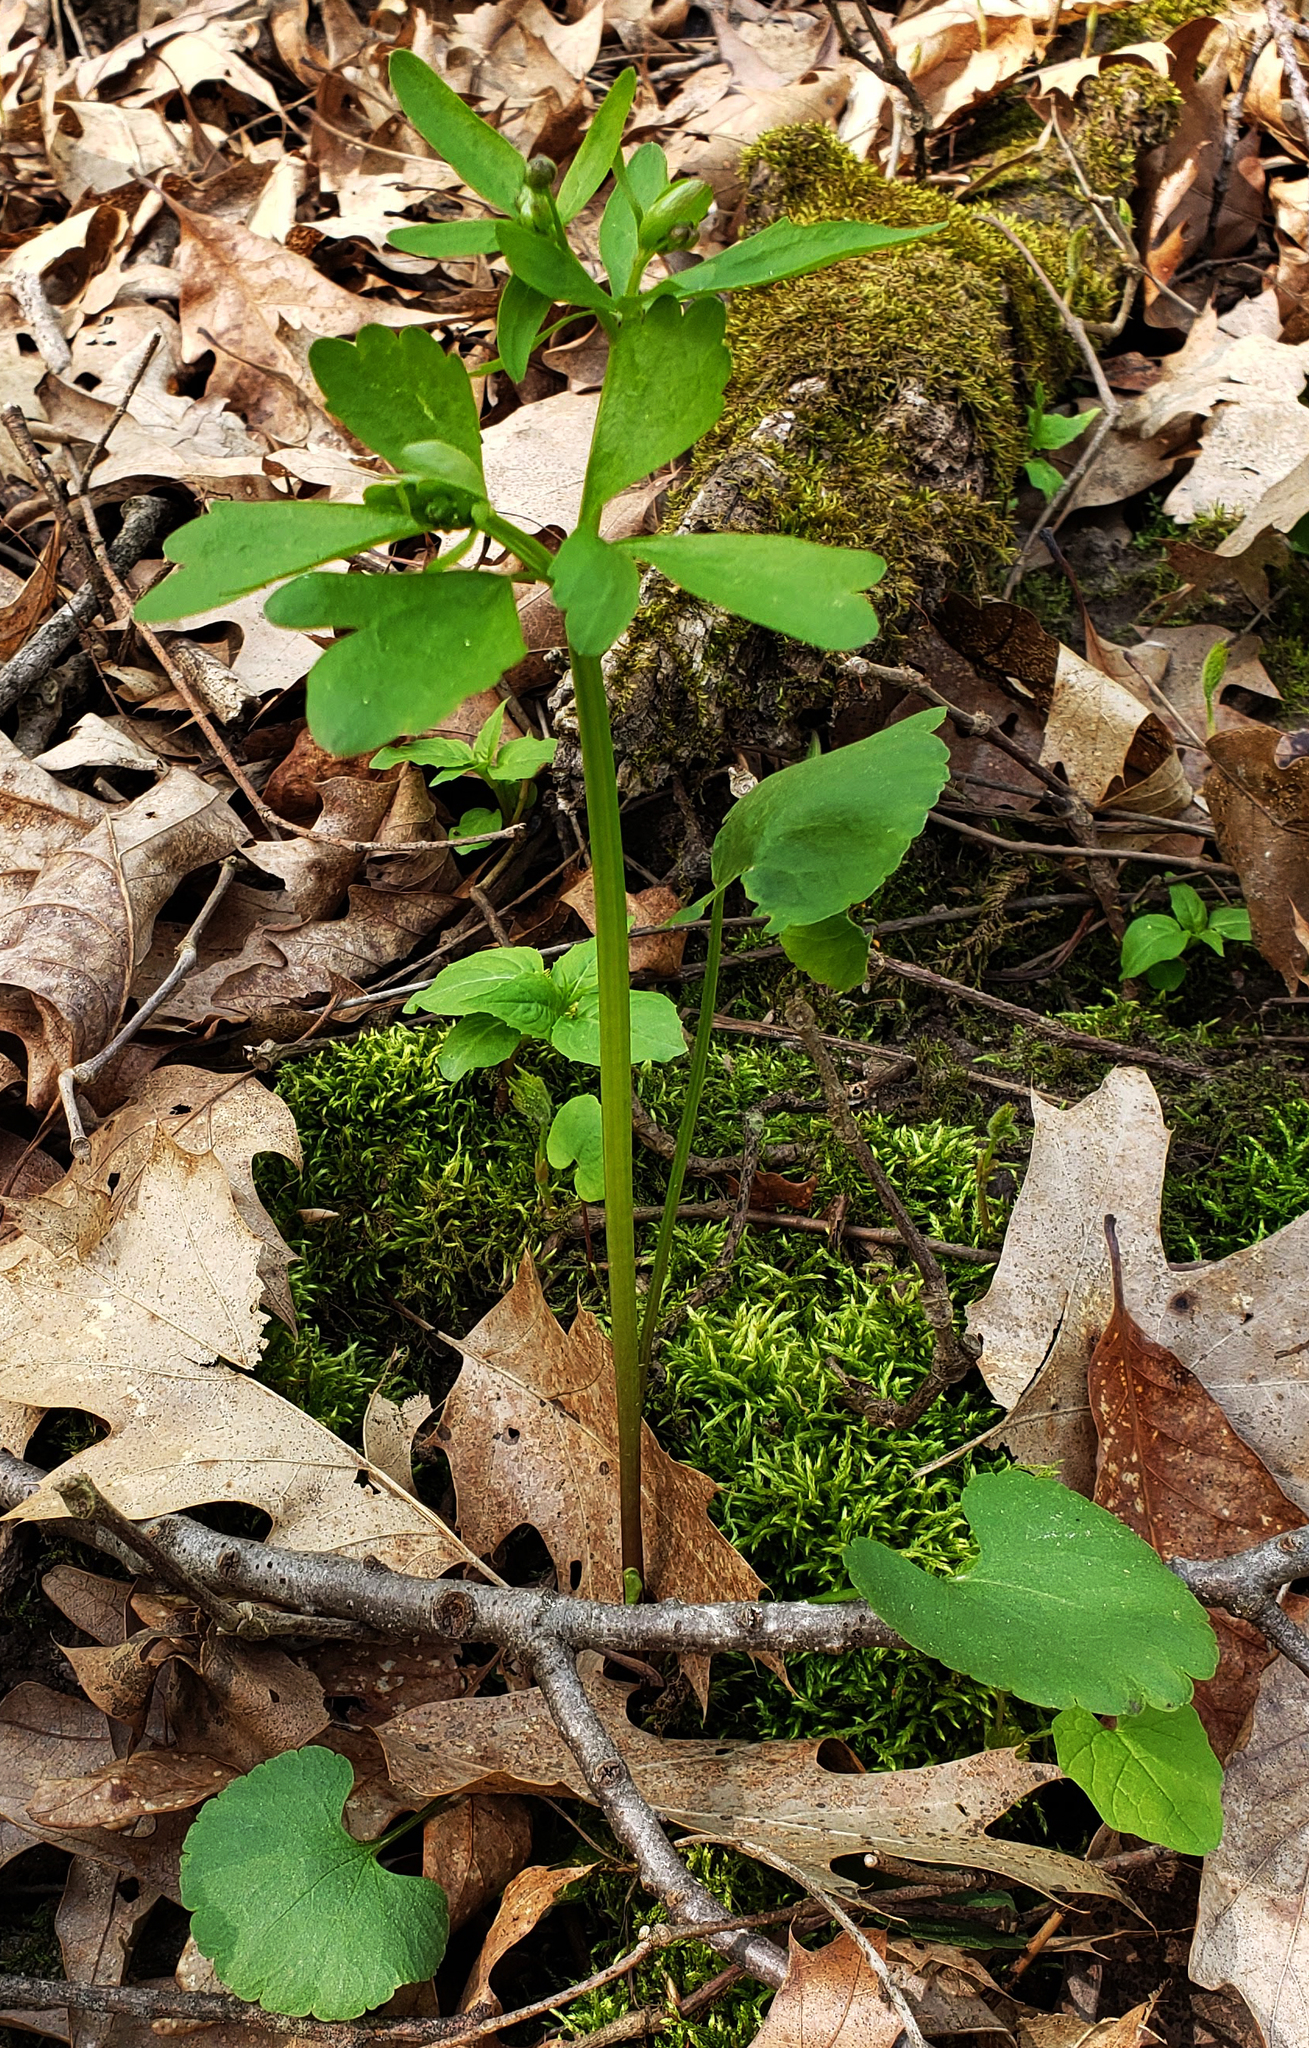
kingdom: Plantae
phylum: Tracheophyta
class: Magnoliopsida
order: Ranunculales
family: Ranunculaceae
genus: Ranunculus
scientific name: Ranunculus abortivus
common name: Early wood buttercup
